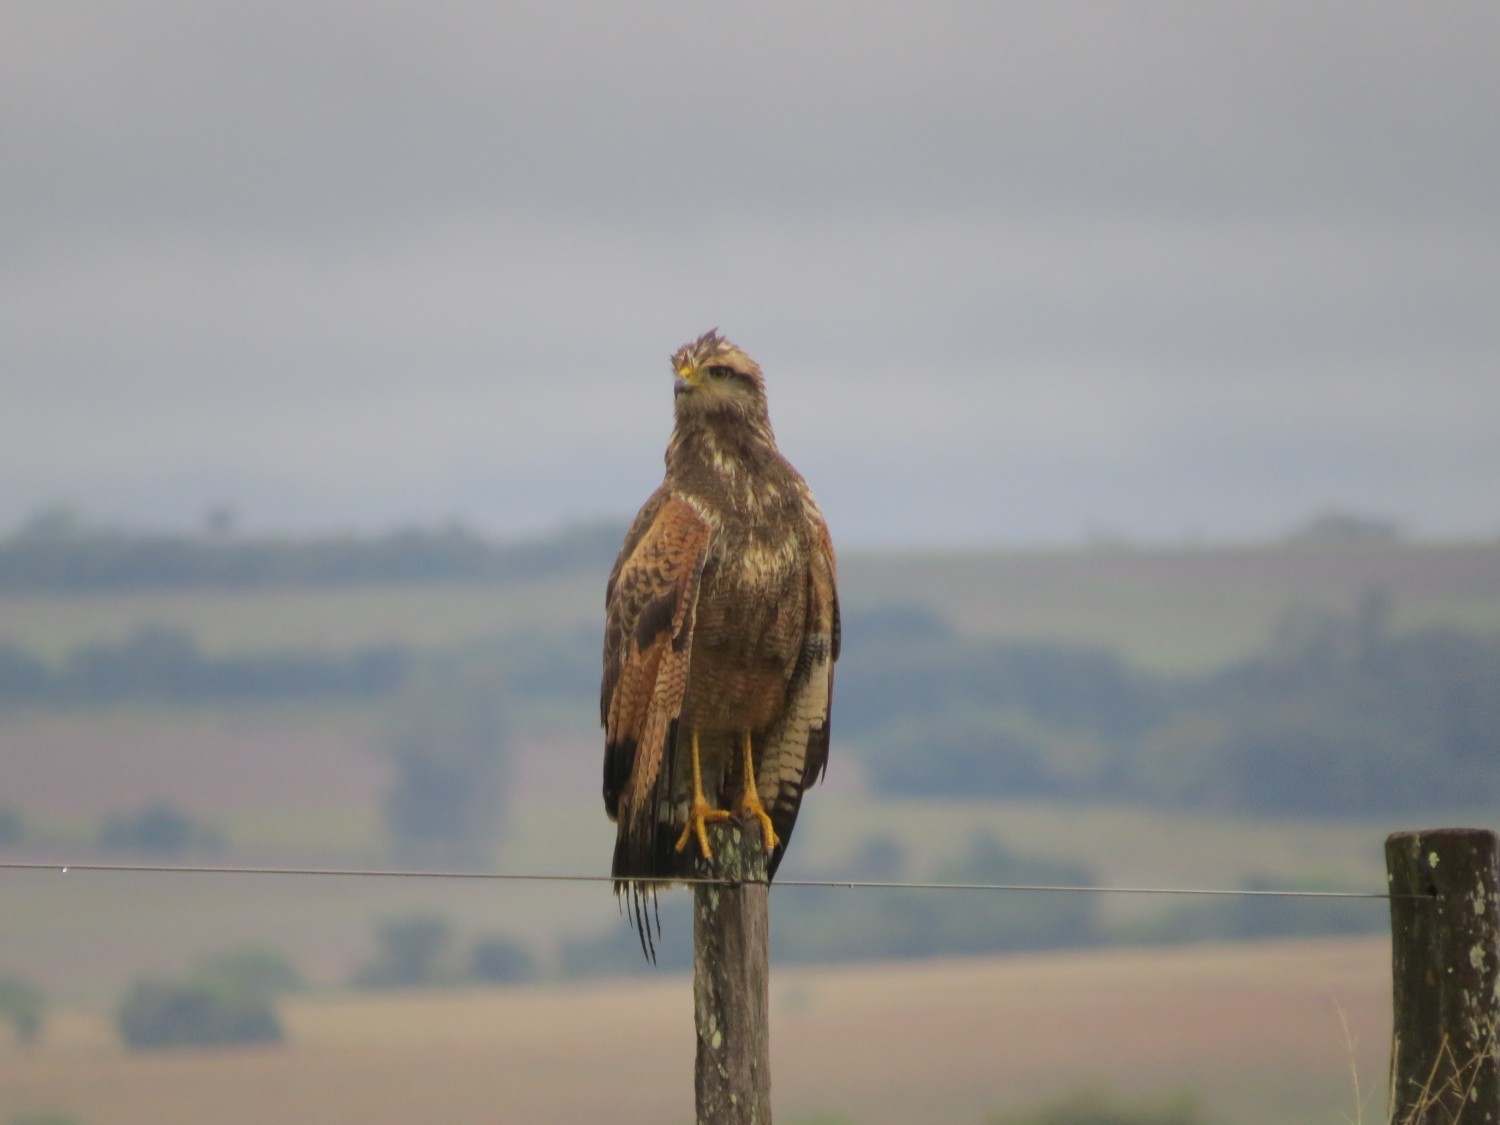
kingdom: Animalia
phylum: Chordata
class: Aves
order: Accipitriformes
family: Accipitridae
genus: Buteogallus
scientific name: Buteogallus meridionalis
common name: Savanna hawk
